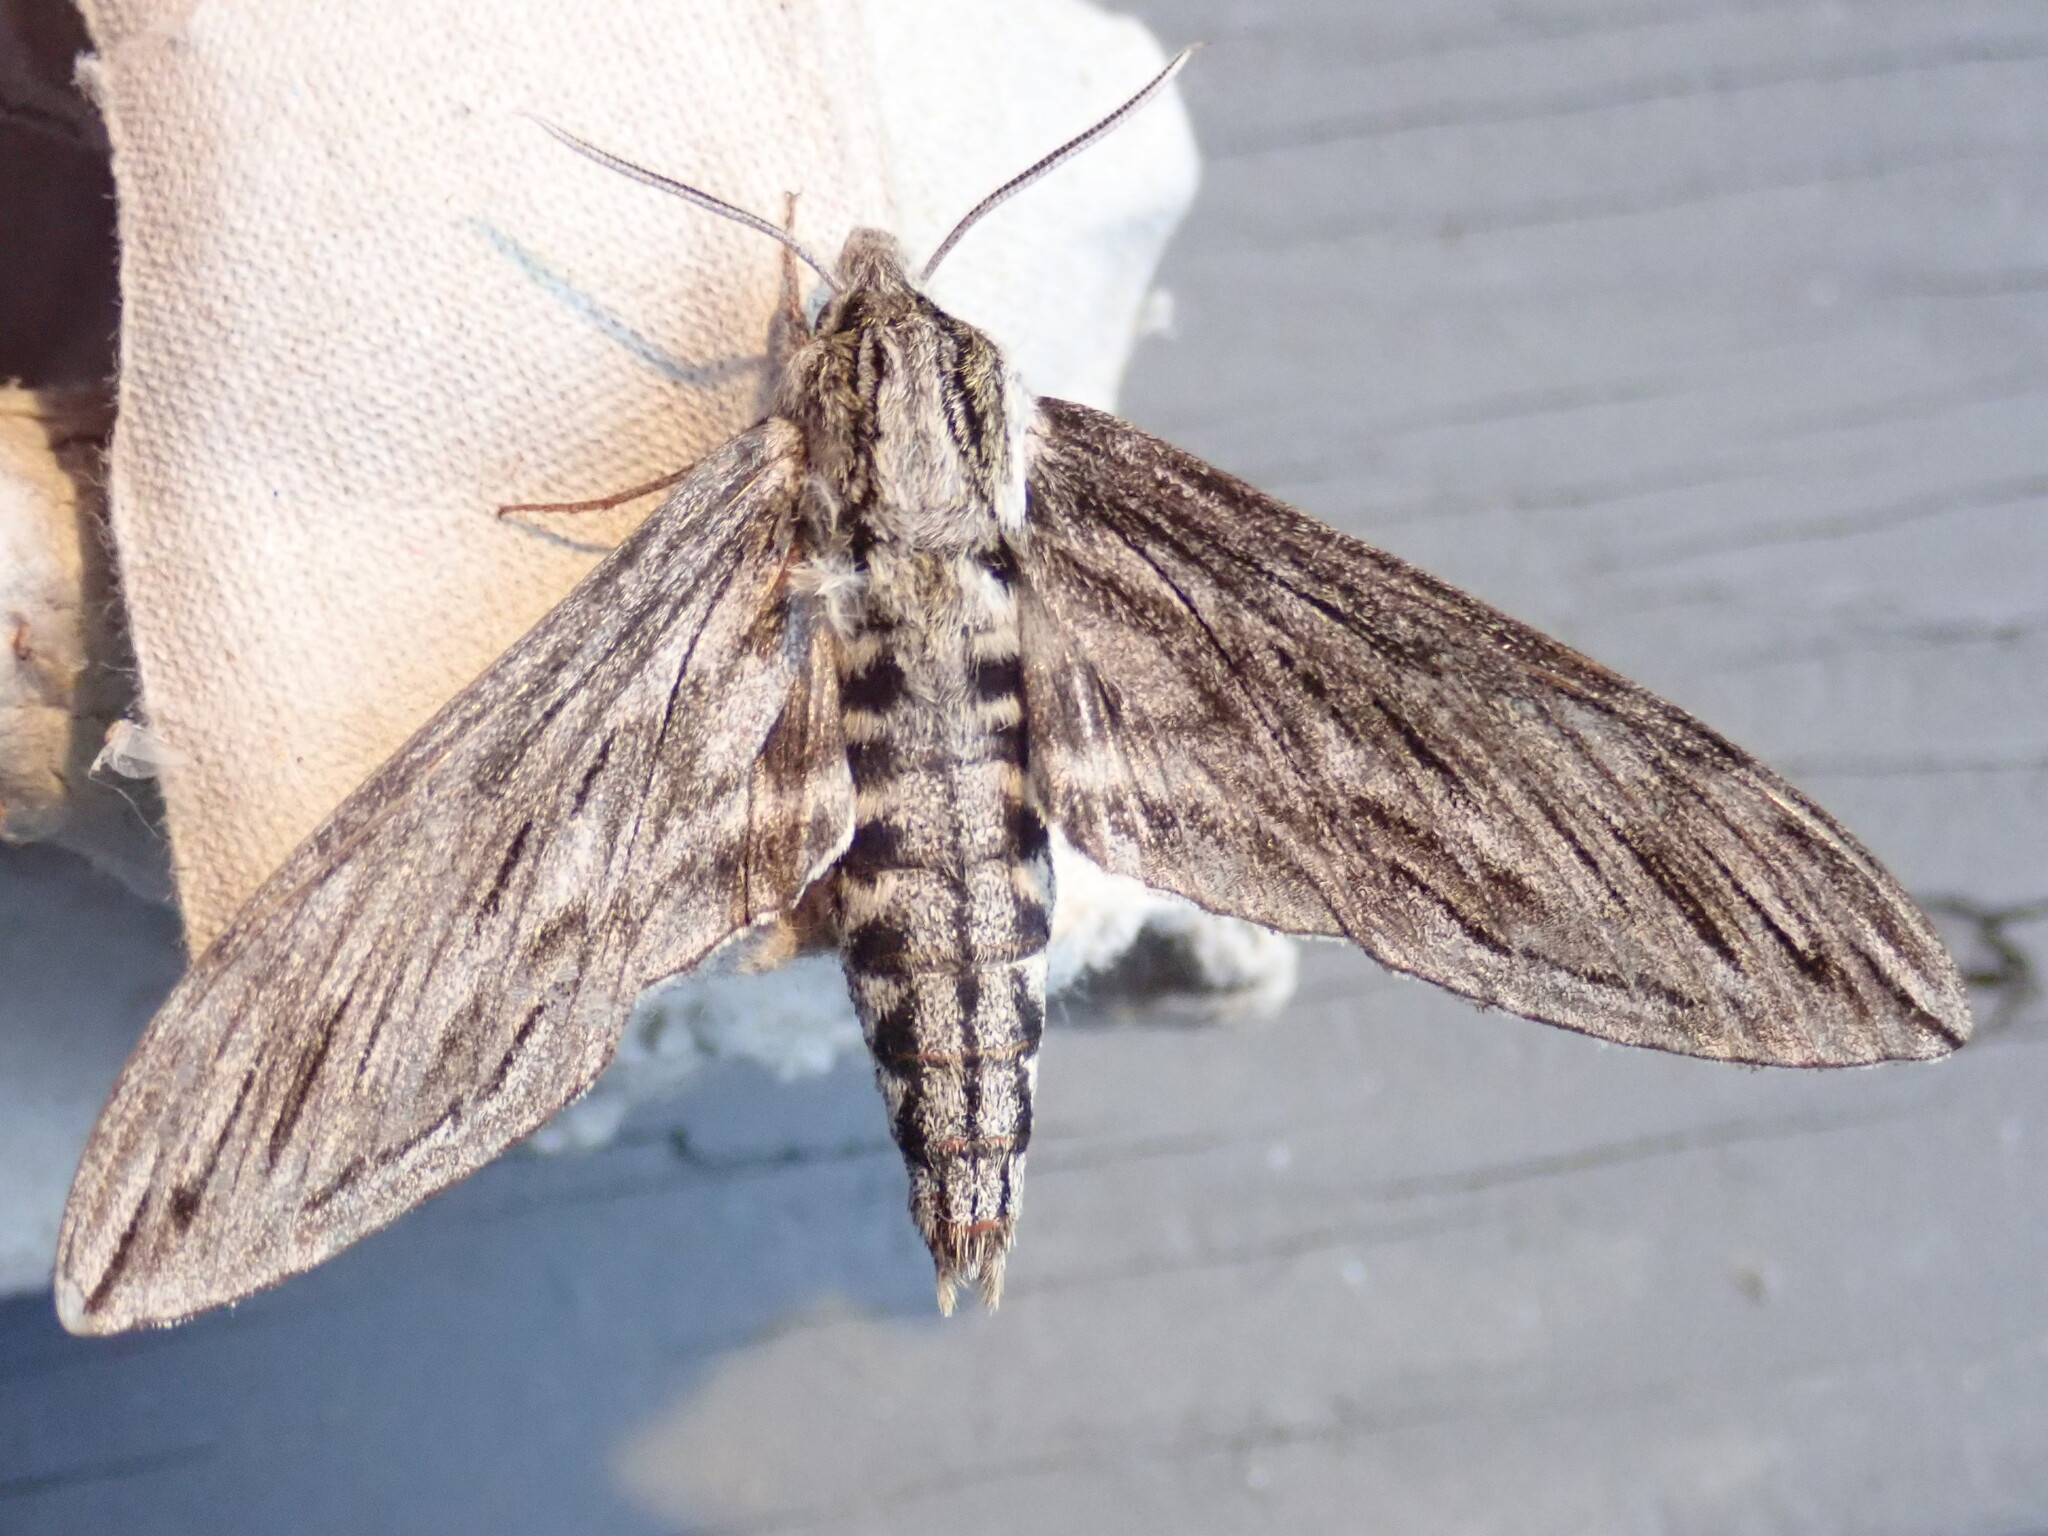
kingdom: Animalia
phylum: Arthropoda
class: Insecta
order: Lepidoptera
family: Sphingidae
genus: Sphinx
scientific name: Sphinx canadensis
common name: Canadian sphinx
